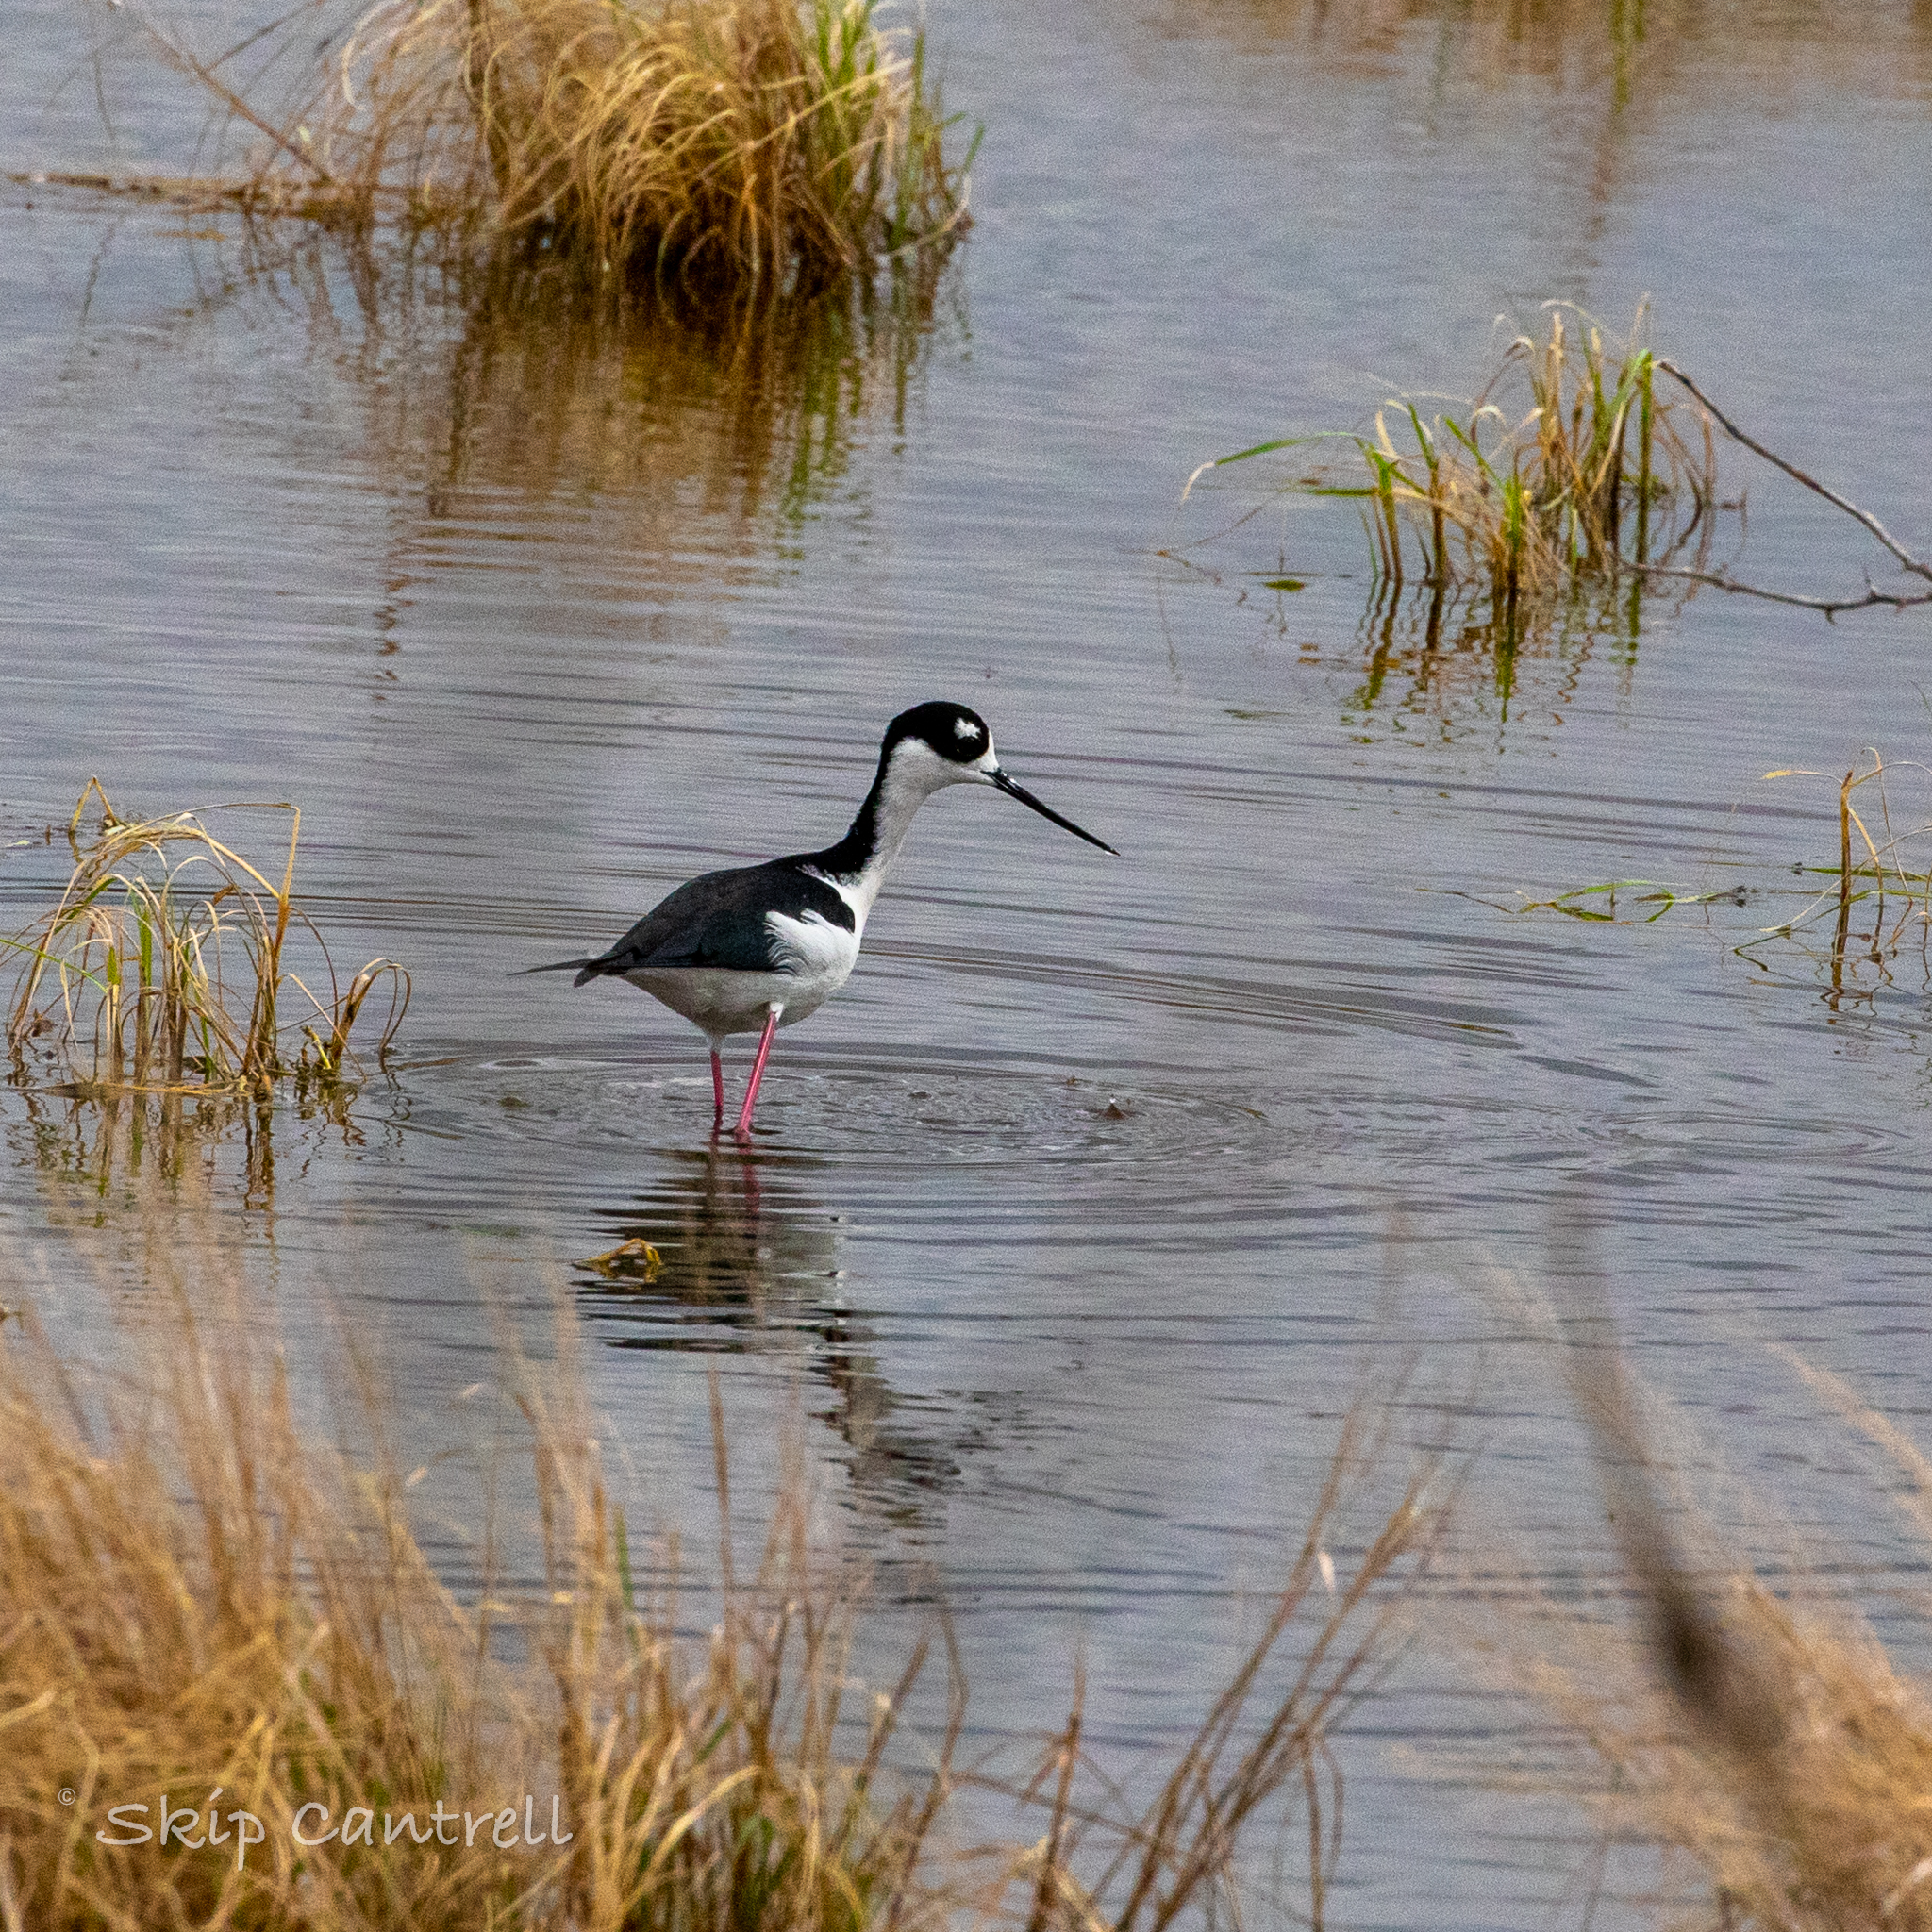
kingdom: Animalia
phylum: Chordata
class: Aves
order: Charadriiformes
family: Recurvirostridae
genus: Himantopus
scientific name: Himantopus mexicanus
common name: Black-necked stilt
